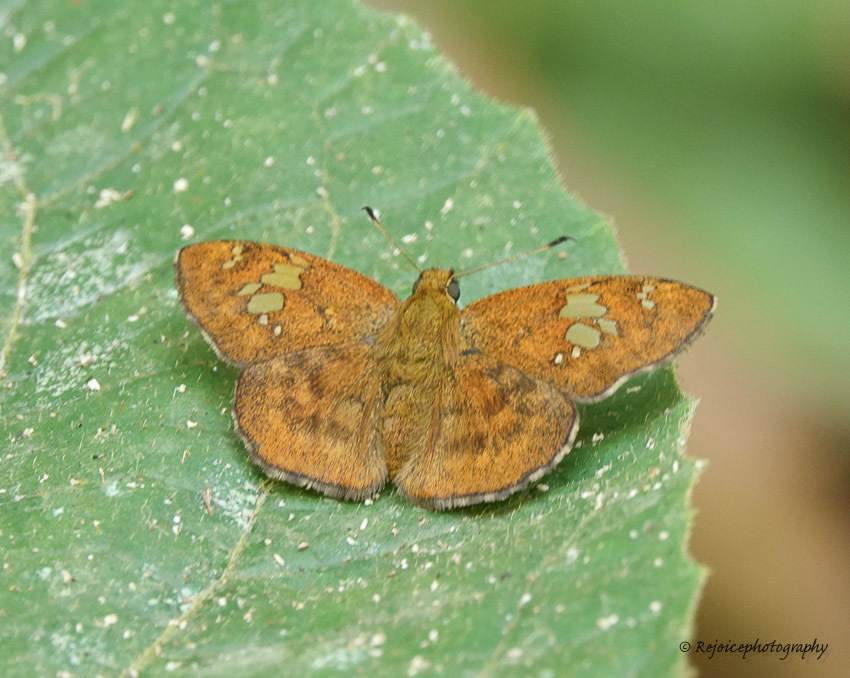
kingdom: Animalia
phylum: Arthropoda
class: Insecta
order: Lepidoptera
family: Hesperiidae
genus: Pseudocoladenia
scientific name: Pseudocoladenia dan
